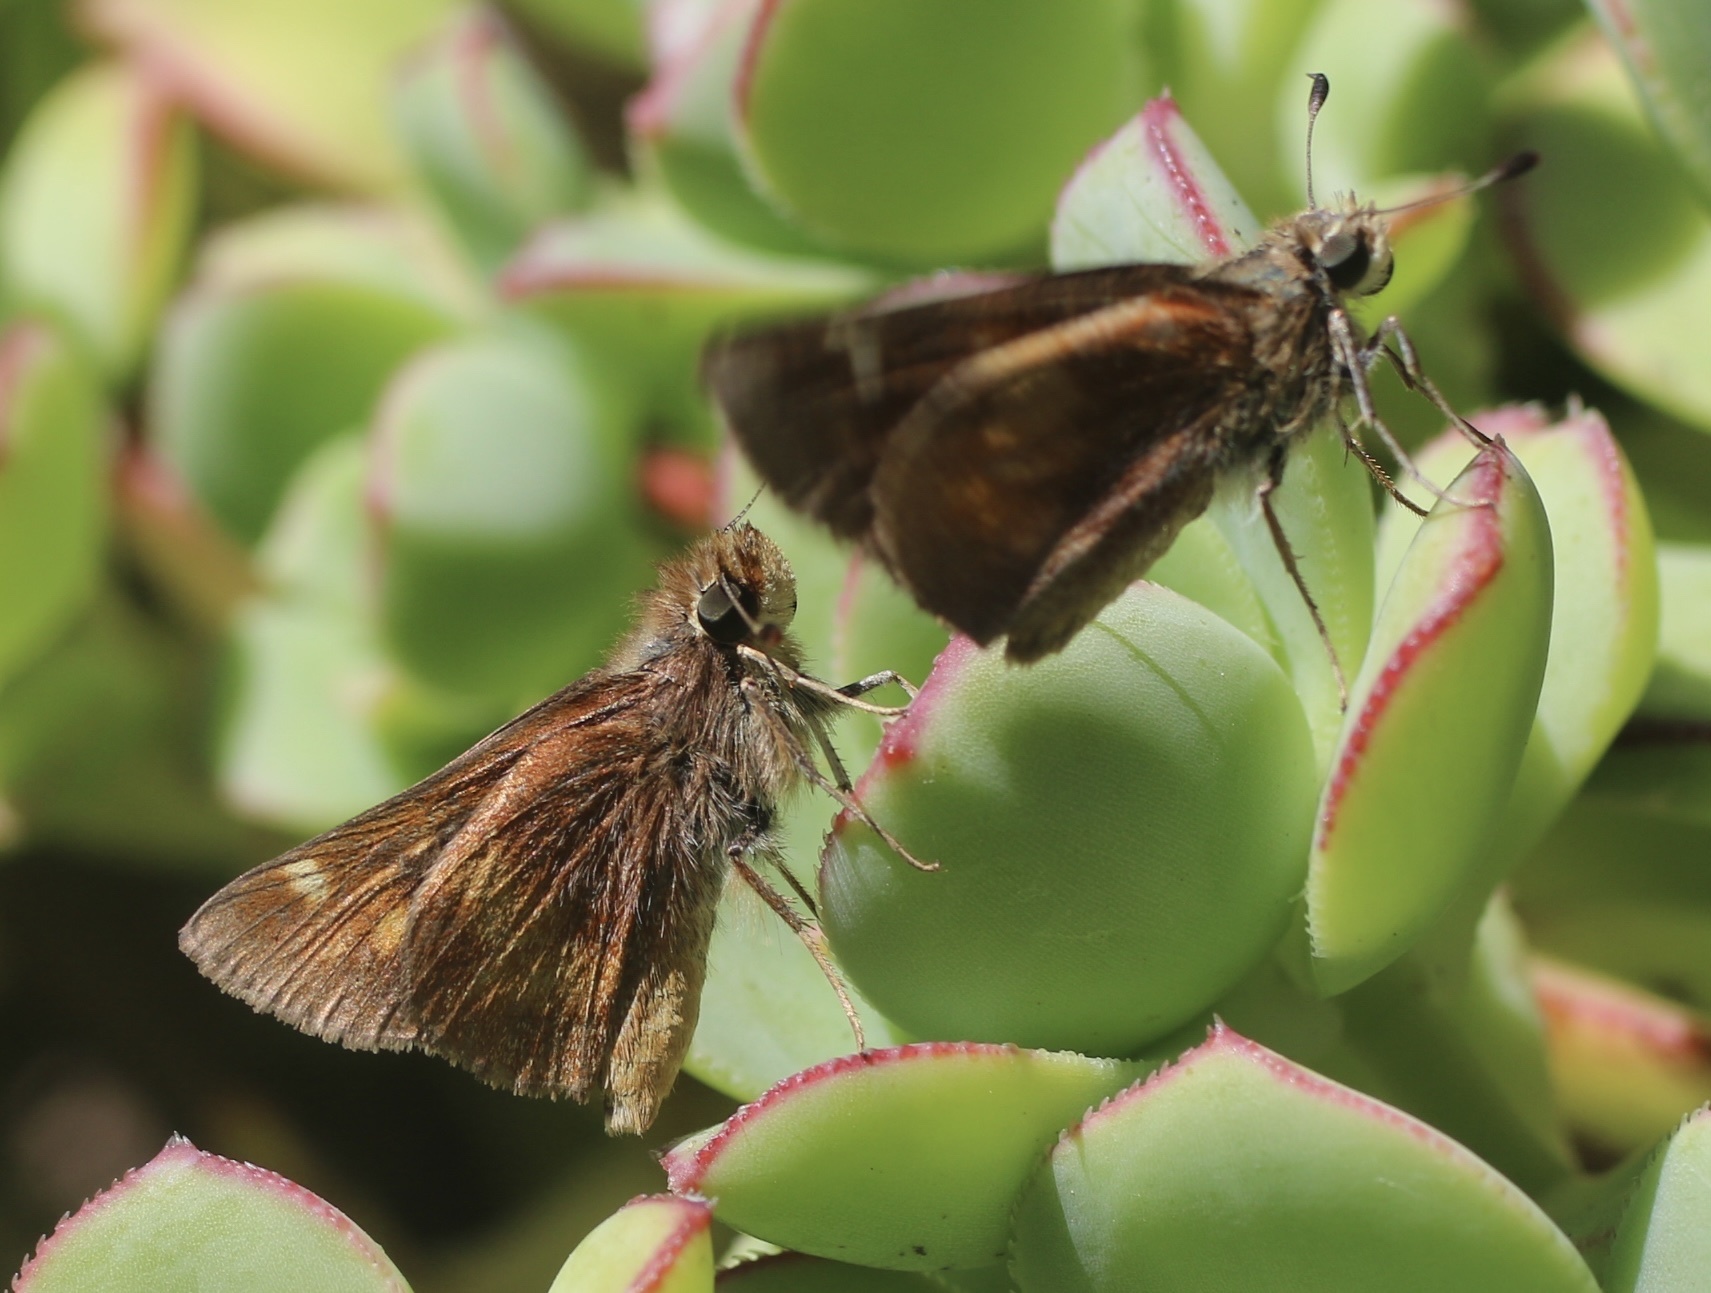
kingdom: Animalia
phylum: Arthropoda
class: Insecta
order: Lepidoptera
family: Hesperiidae
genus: Lon
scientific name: Lon melane
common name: Umber skipper
